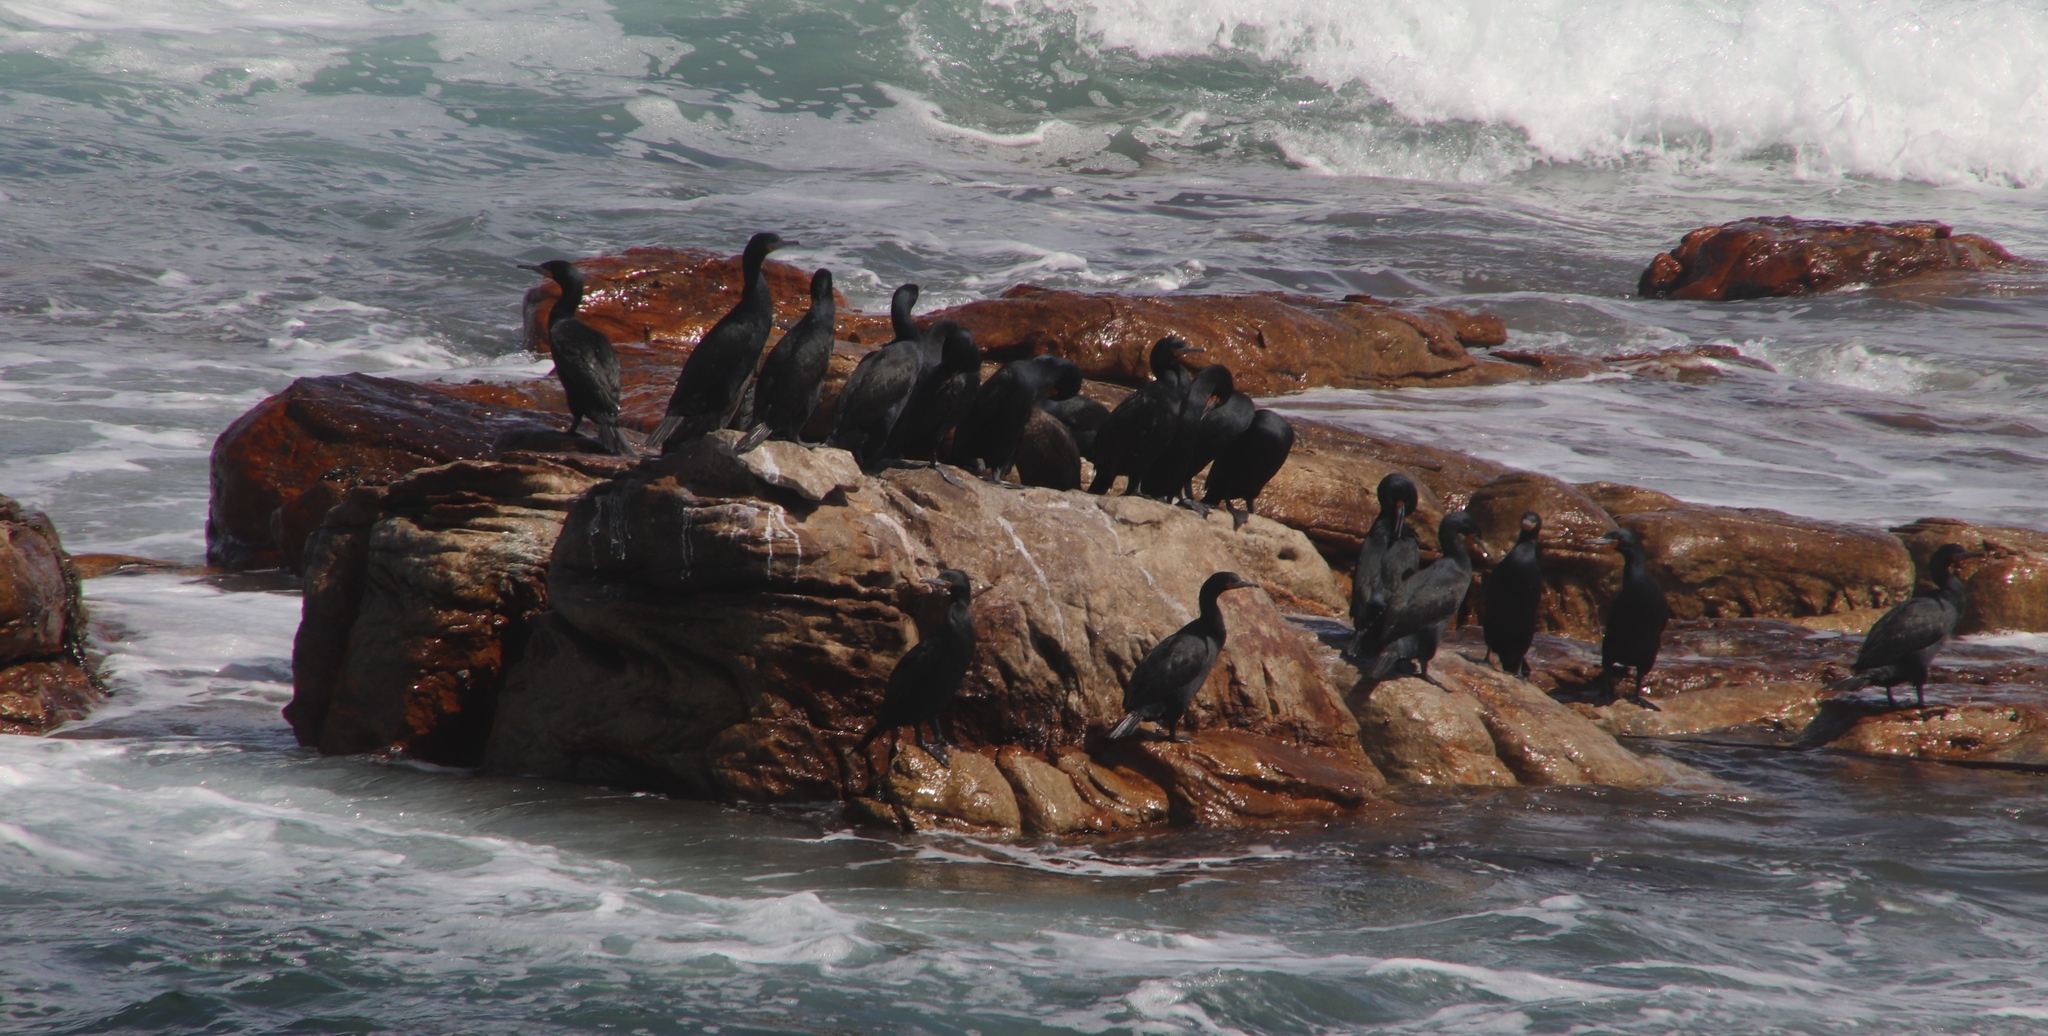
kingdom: Animalia
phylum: Chordata
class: Aves
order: Suliformes
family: Phalacrocoracidae
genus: Phalacrocorax
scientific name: Phalacrocorax capensis
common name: Cape cormorant
